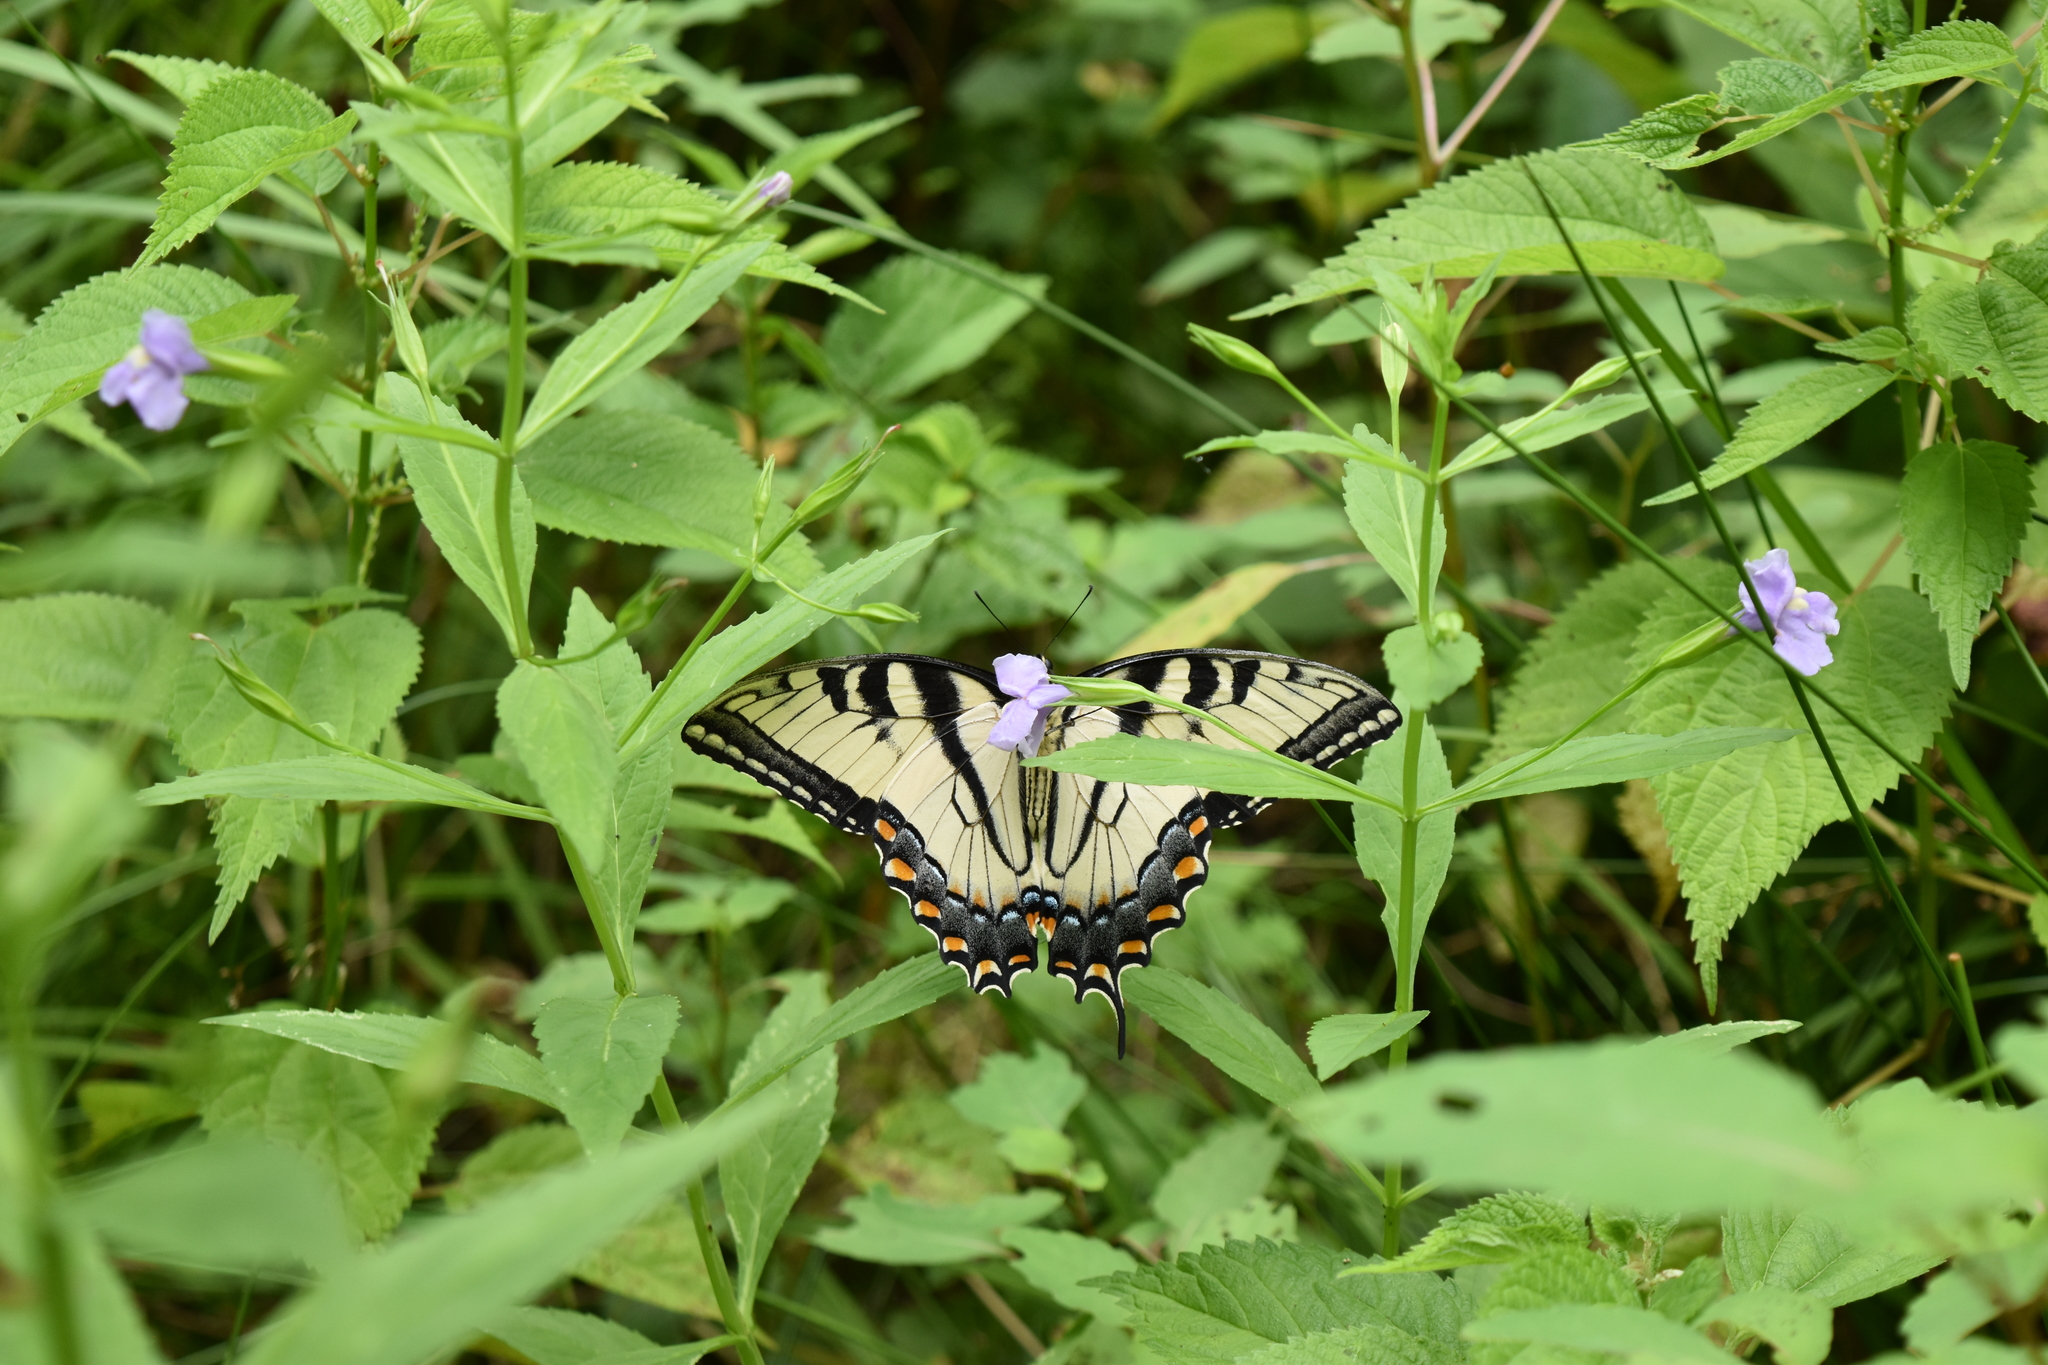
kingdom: Animalia
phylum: Arthropoda
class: Insecta
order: Lepidoptera
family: Papilionidae
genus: Papilio
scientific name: Papilio glaucus
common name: Tiger swallowtail
